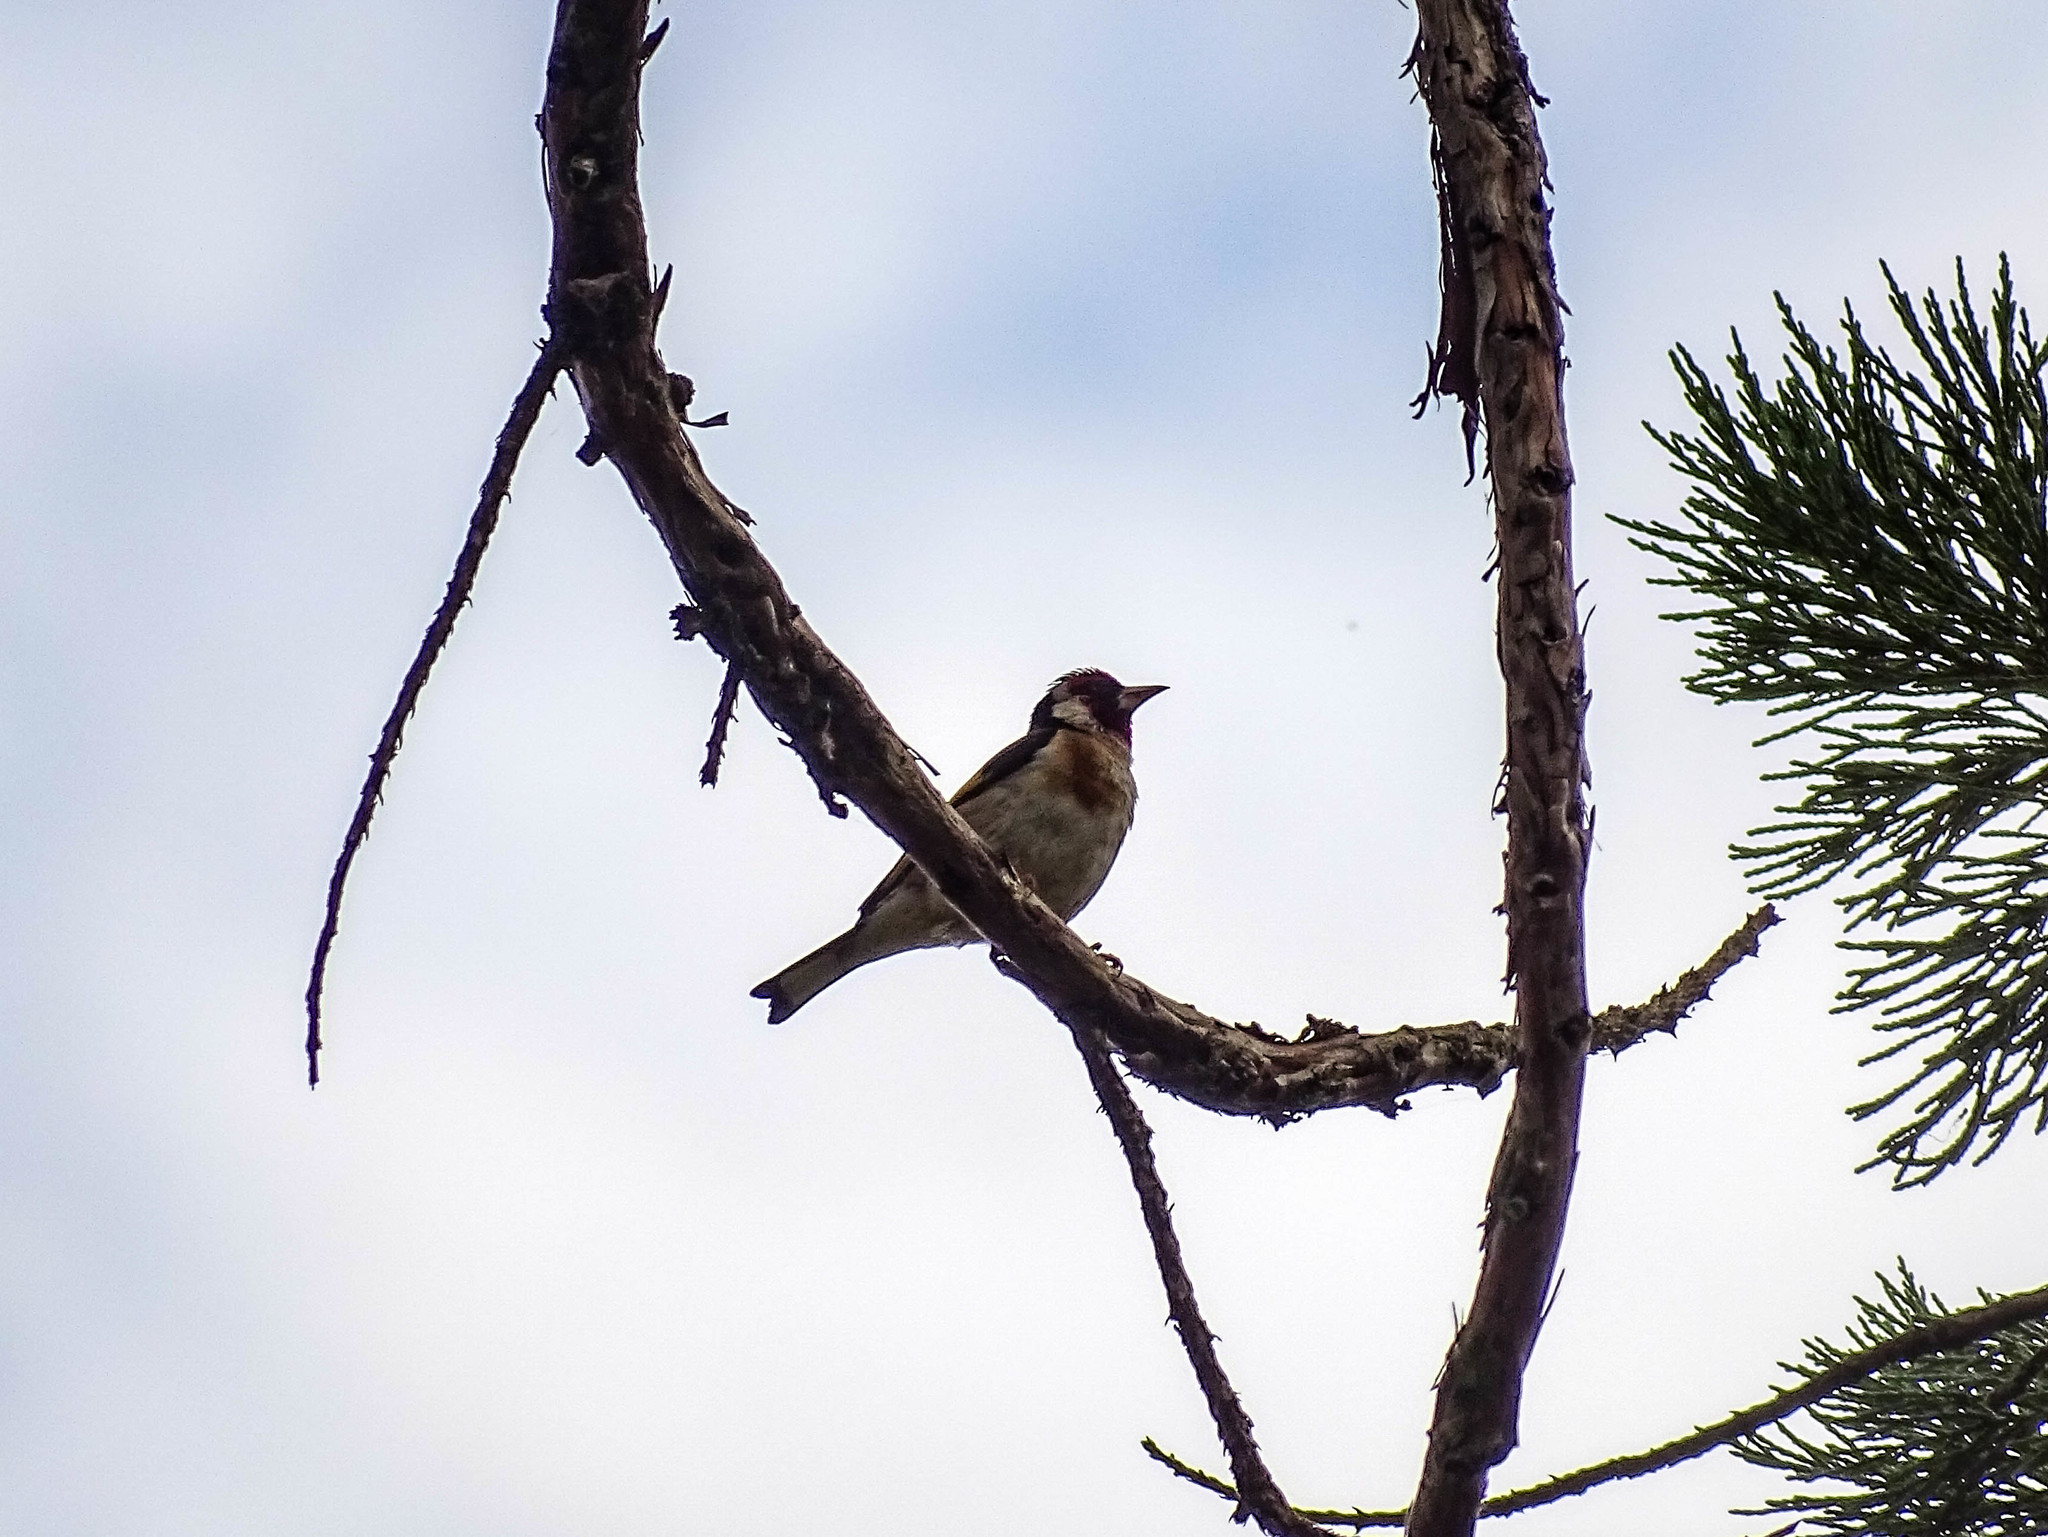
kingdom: Animalia
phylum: Chordata
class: Aves
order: Passeriformes
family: Fringillidae
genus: Carduelis
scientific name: Carduelis carduelis
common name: European goldfinch
